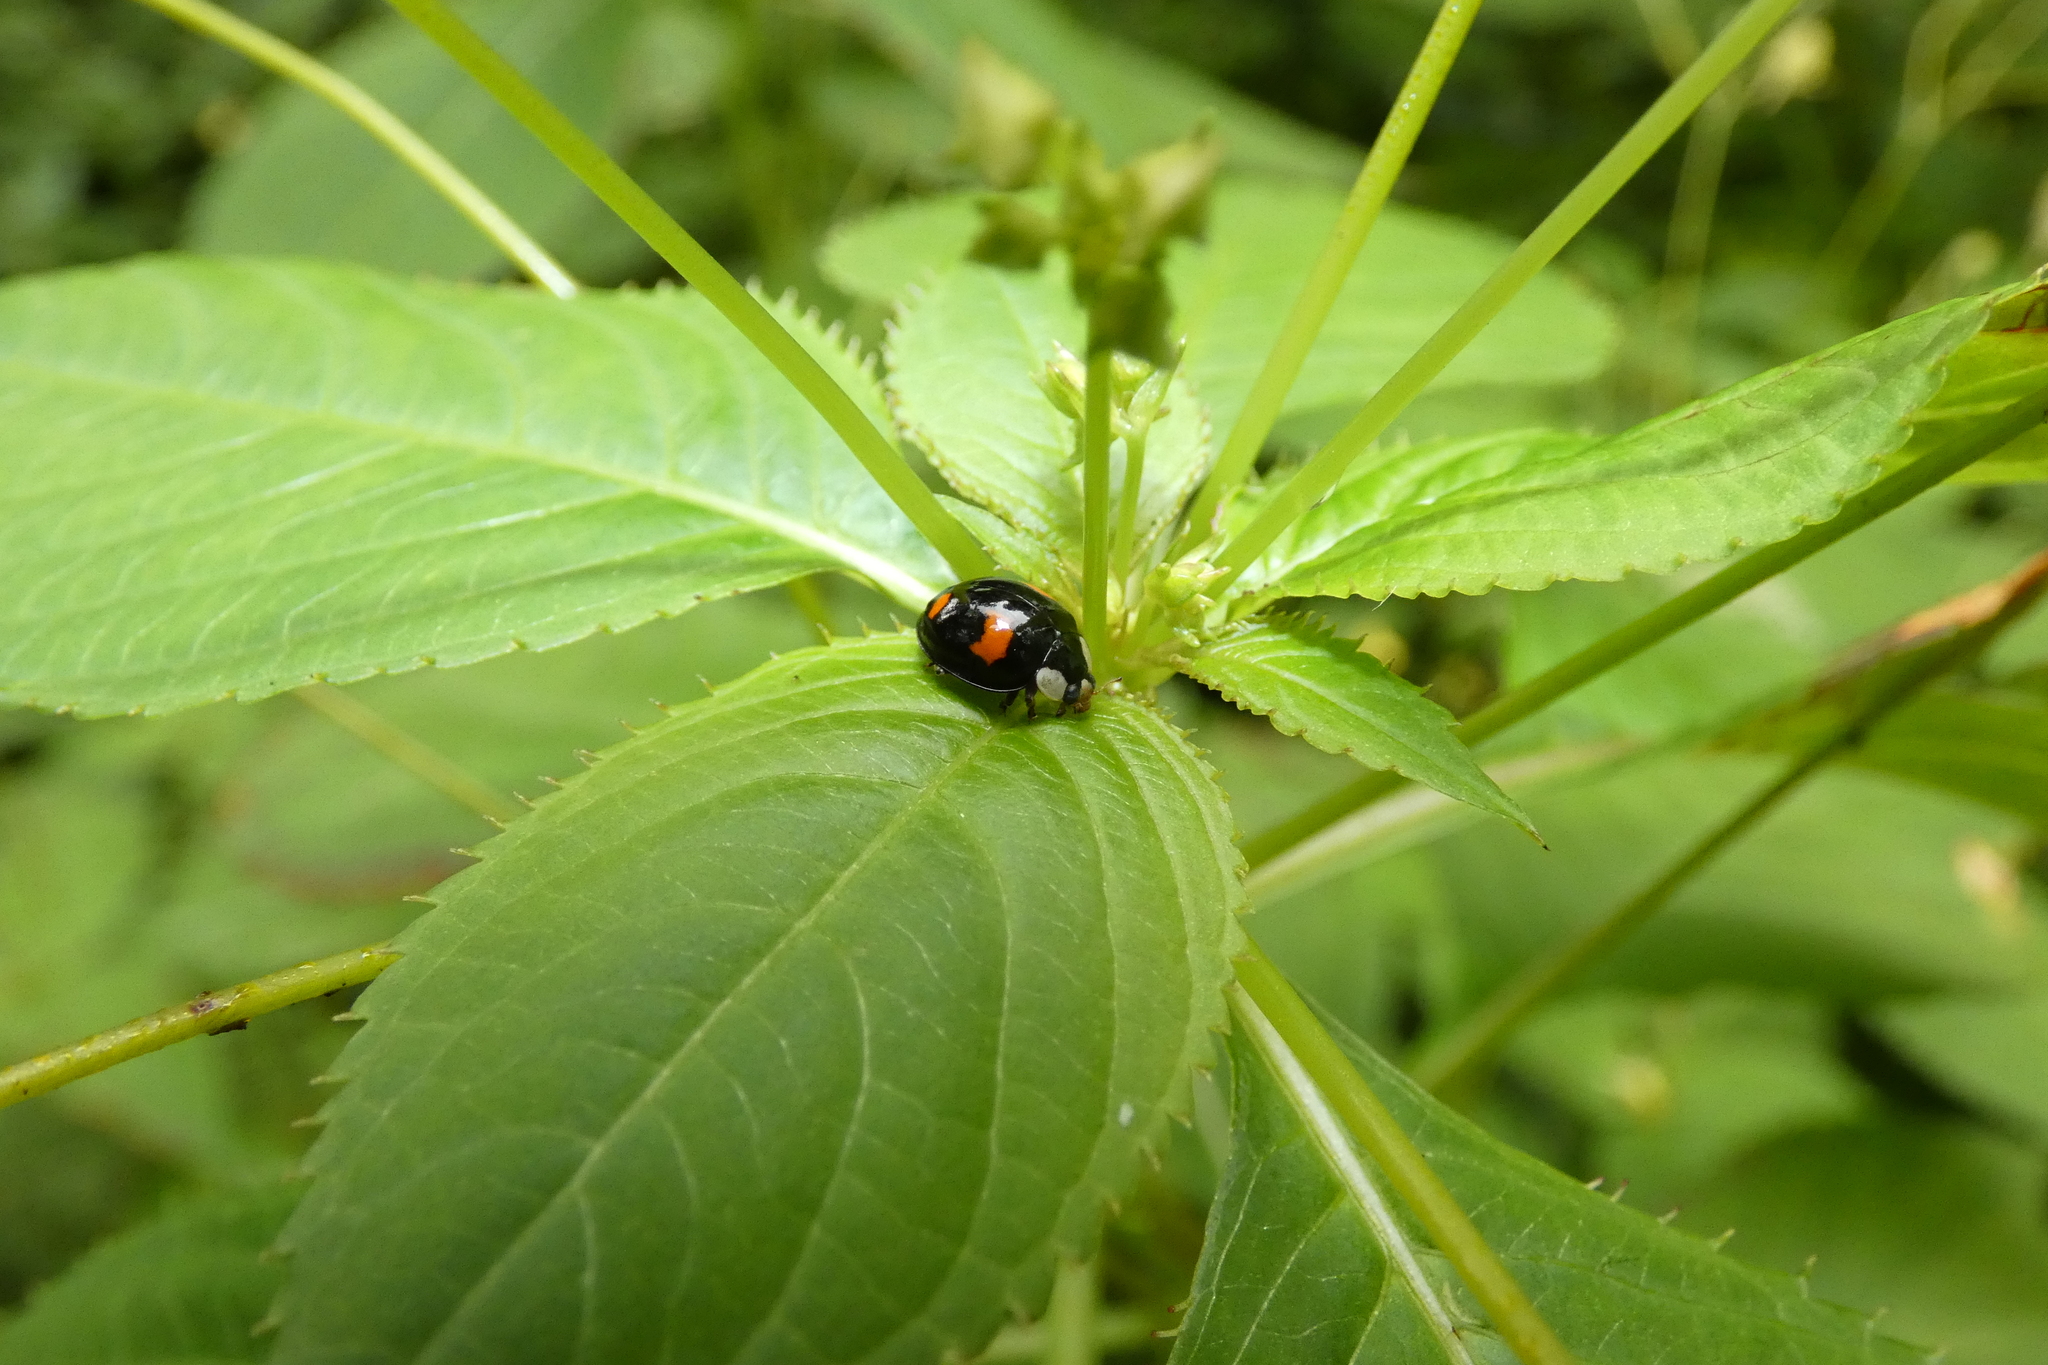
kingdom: Animalia
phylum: Arthropoda
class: Insecta
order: Coleoptera
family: Coccinellidae
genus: Harmonia
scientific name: Harmonia axyridis
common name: Harlequin ladybird
